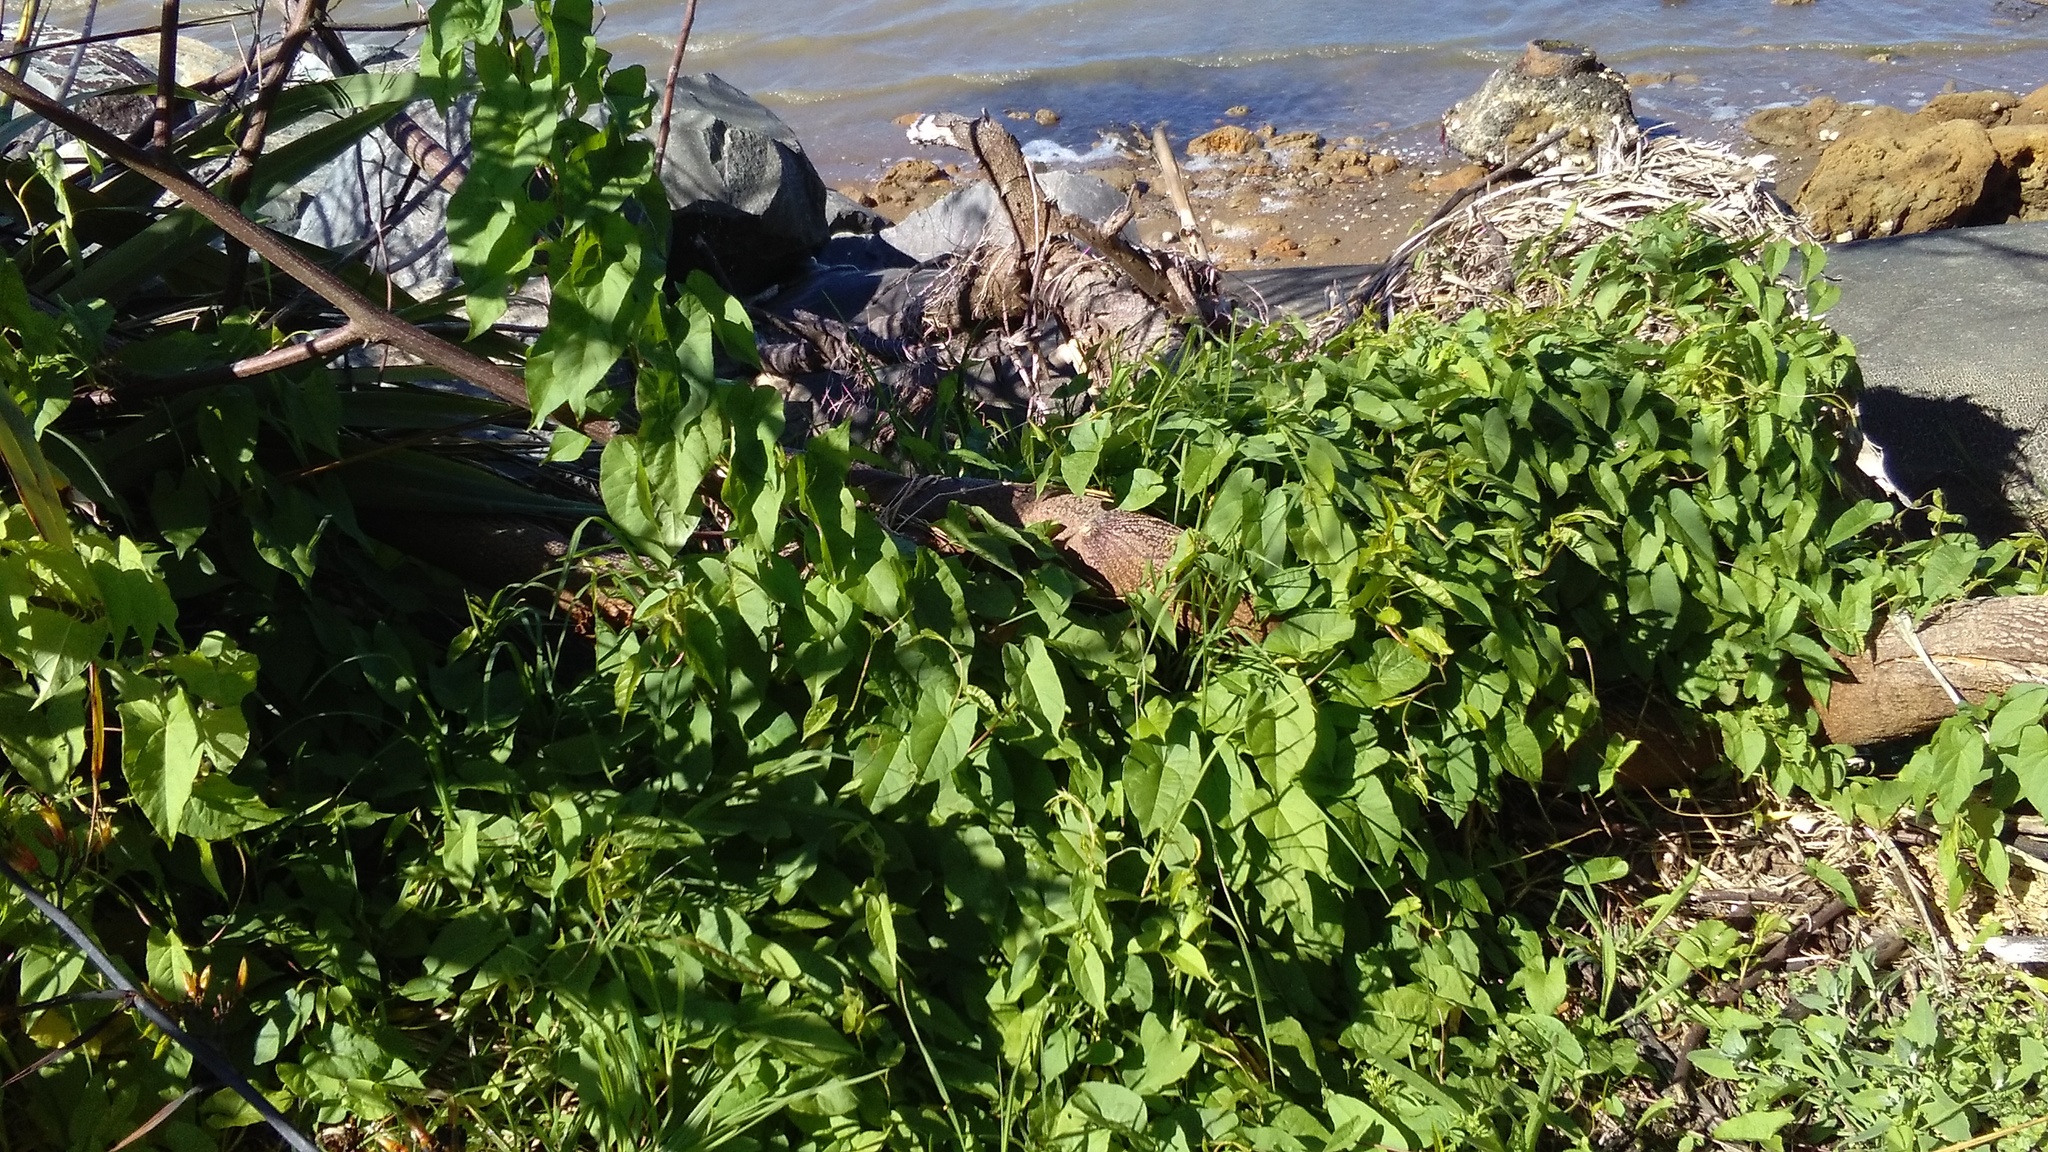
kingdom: Plantae
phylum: Tracheophyta
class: Magnoliopsida
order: Solanales
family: Convolvulaceae
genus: Calystegia
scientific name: Calystegia sepium
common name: Hedge bindweed
